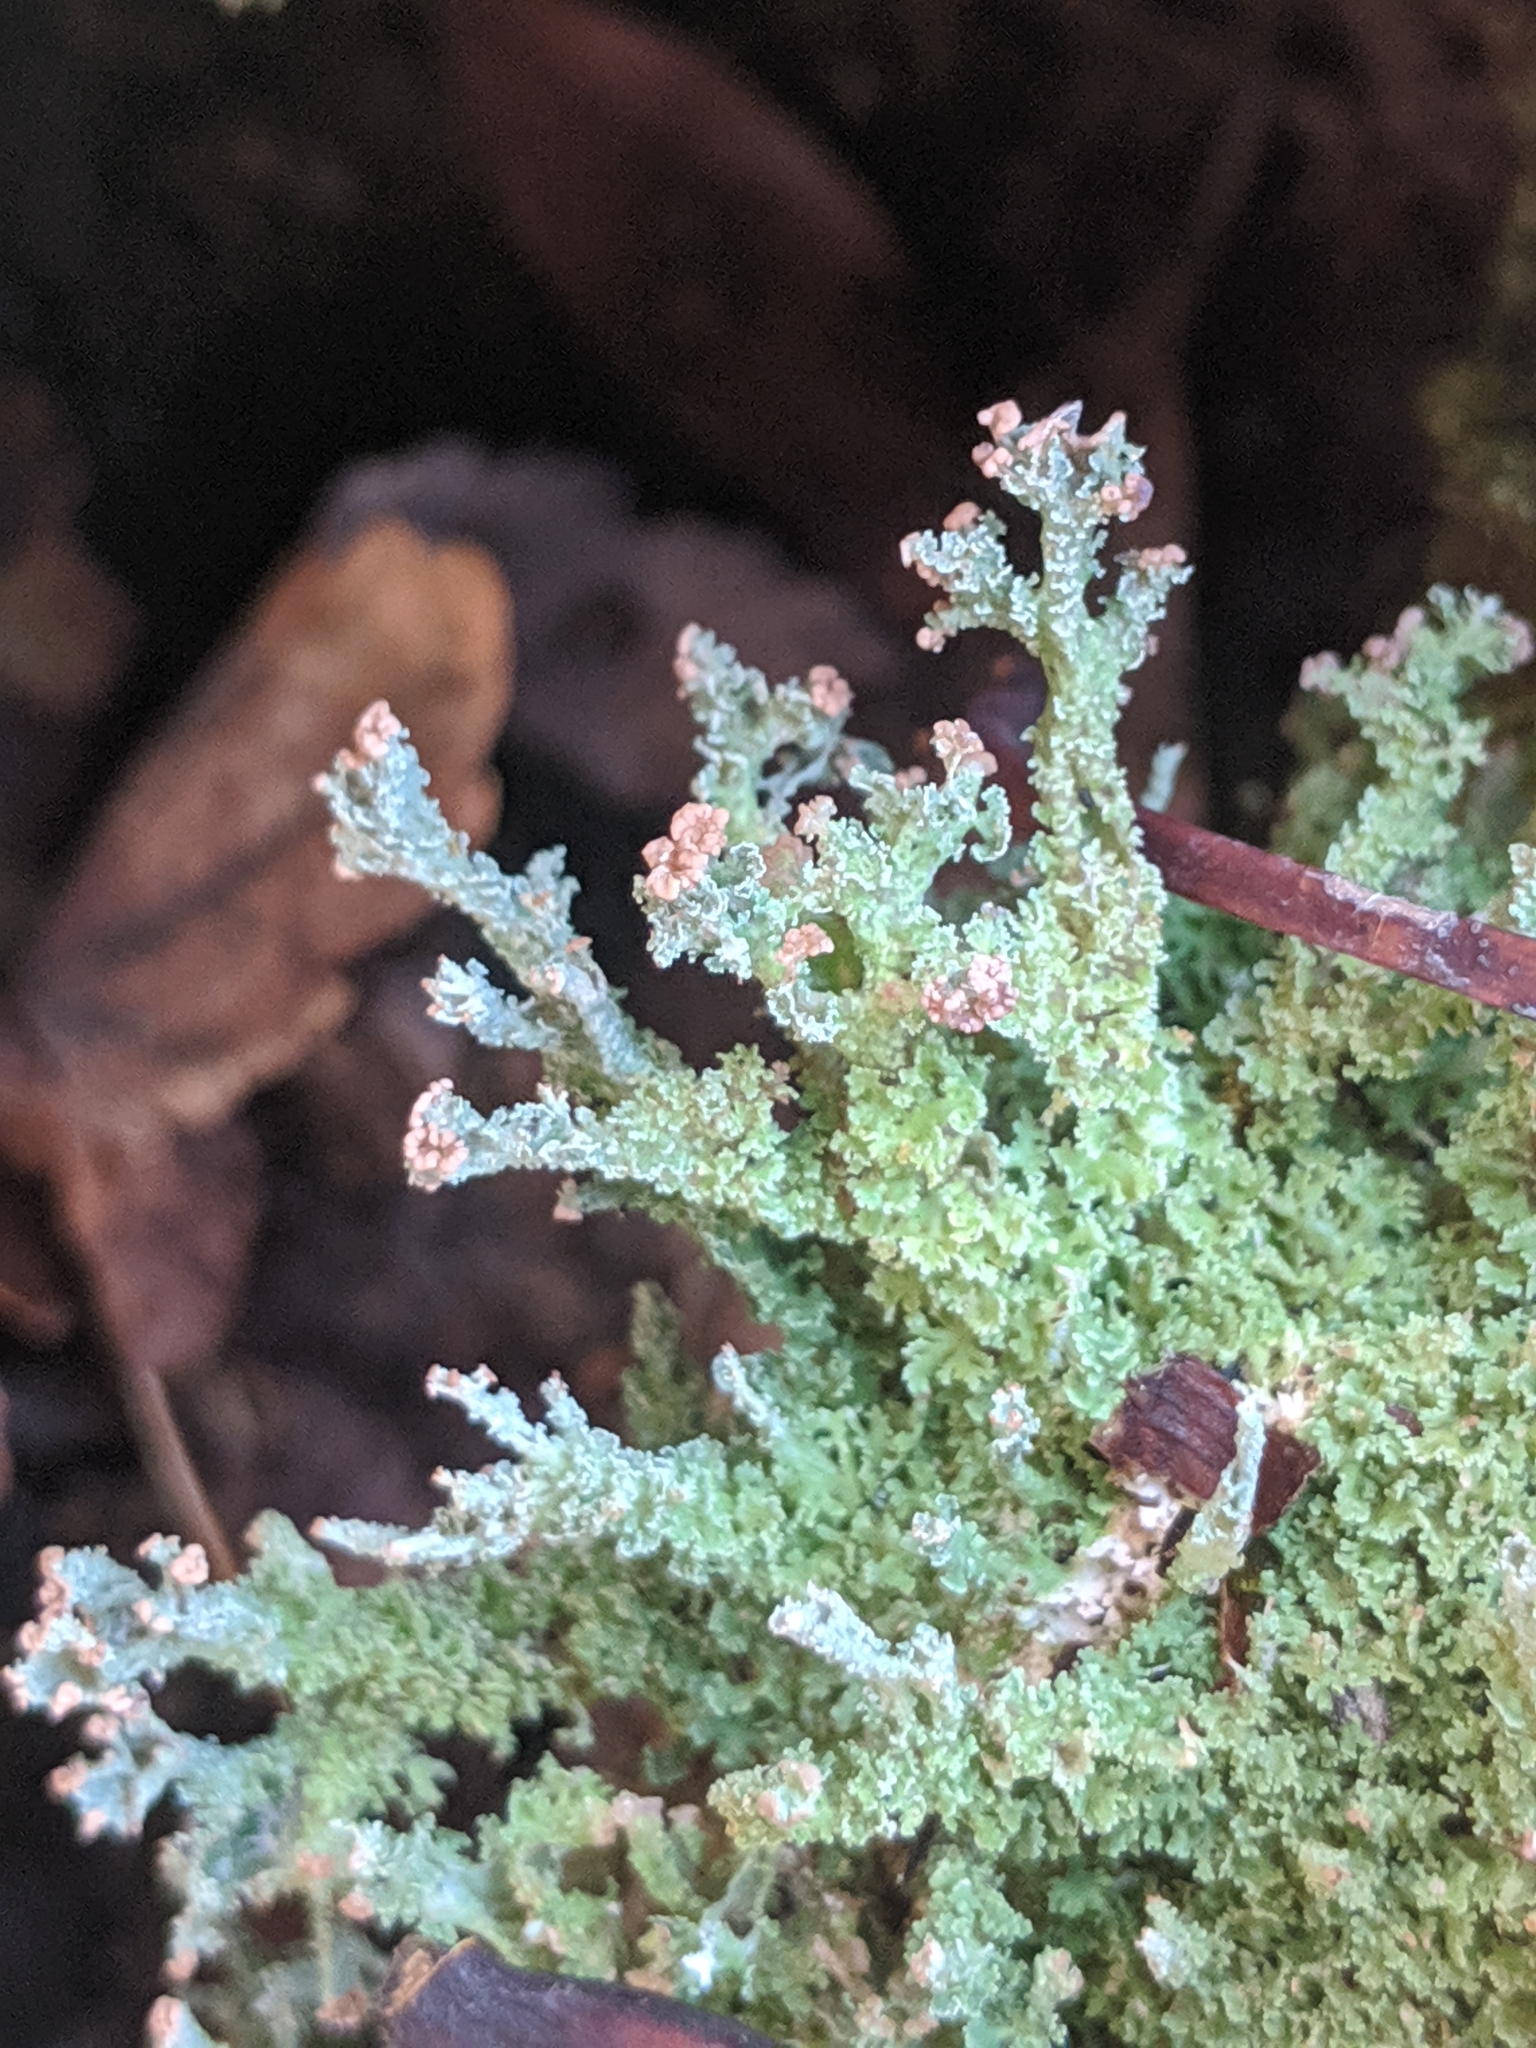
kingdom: Fungi
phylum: Ascomycota
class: Lecanoromycetes
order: Lecanorales
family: Cladoniaceae
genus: Cladonia
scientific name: Cladonia squamosa
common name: Dragon horn
